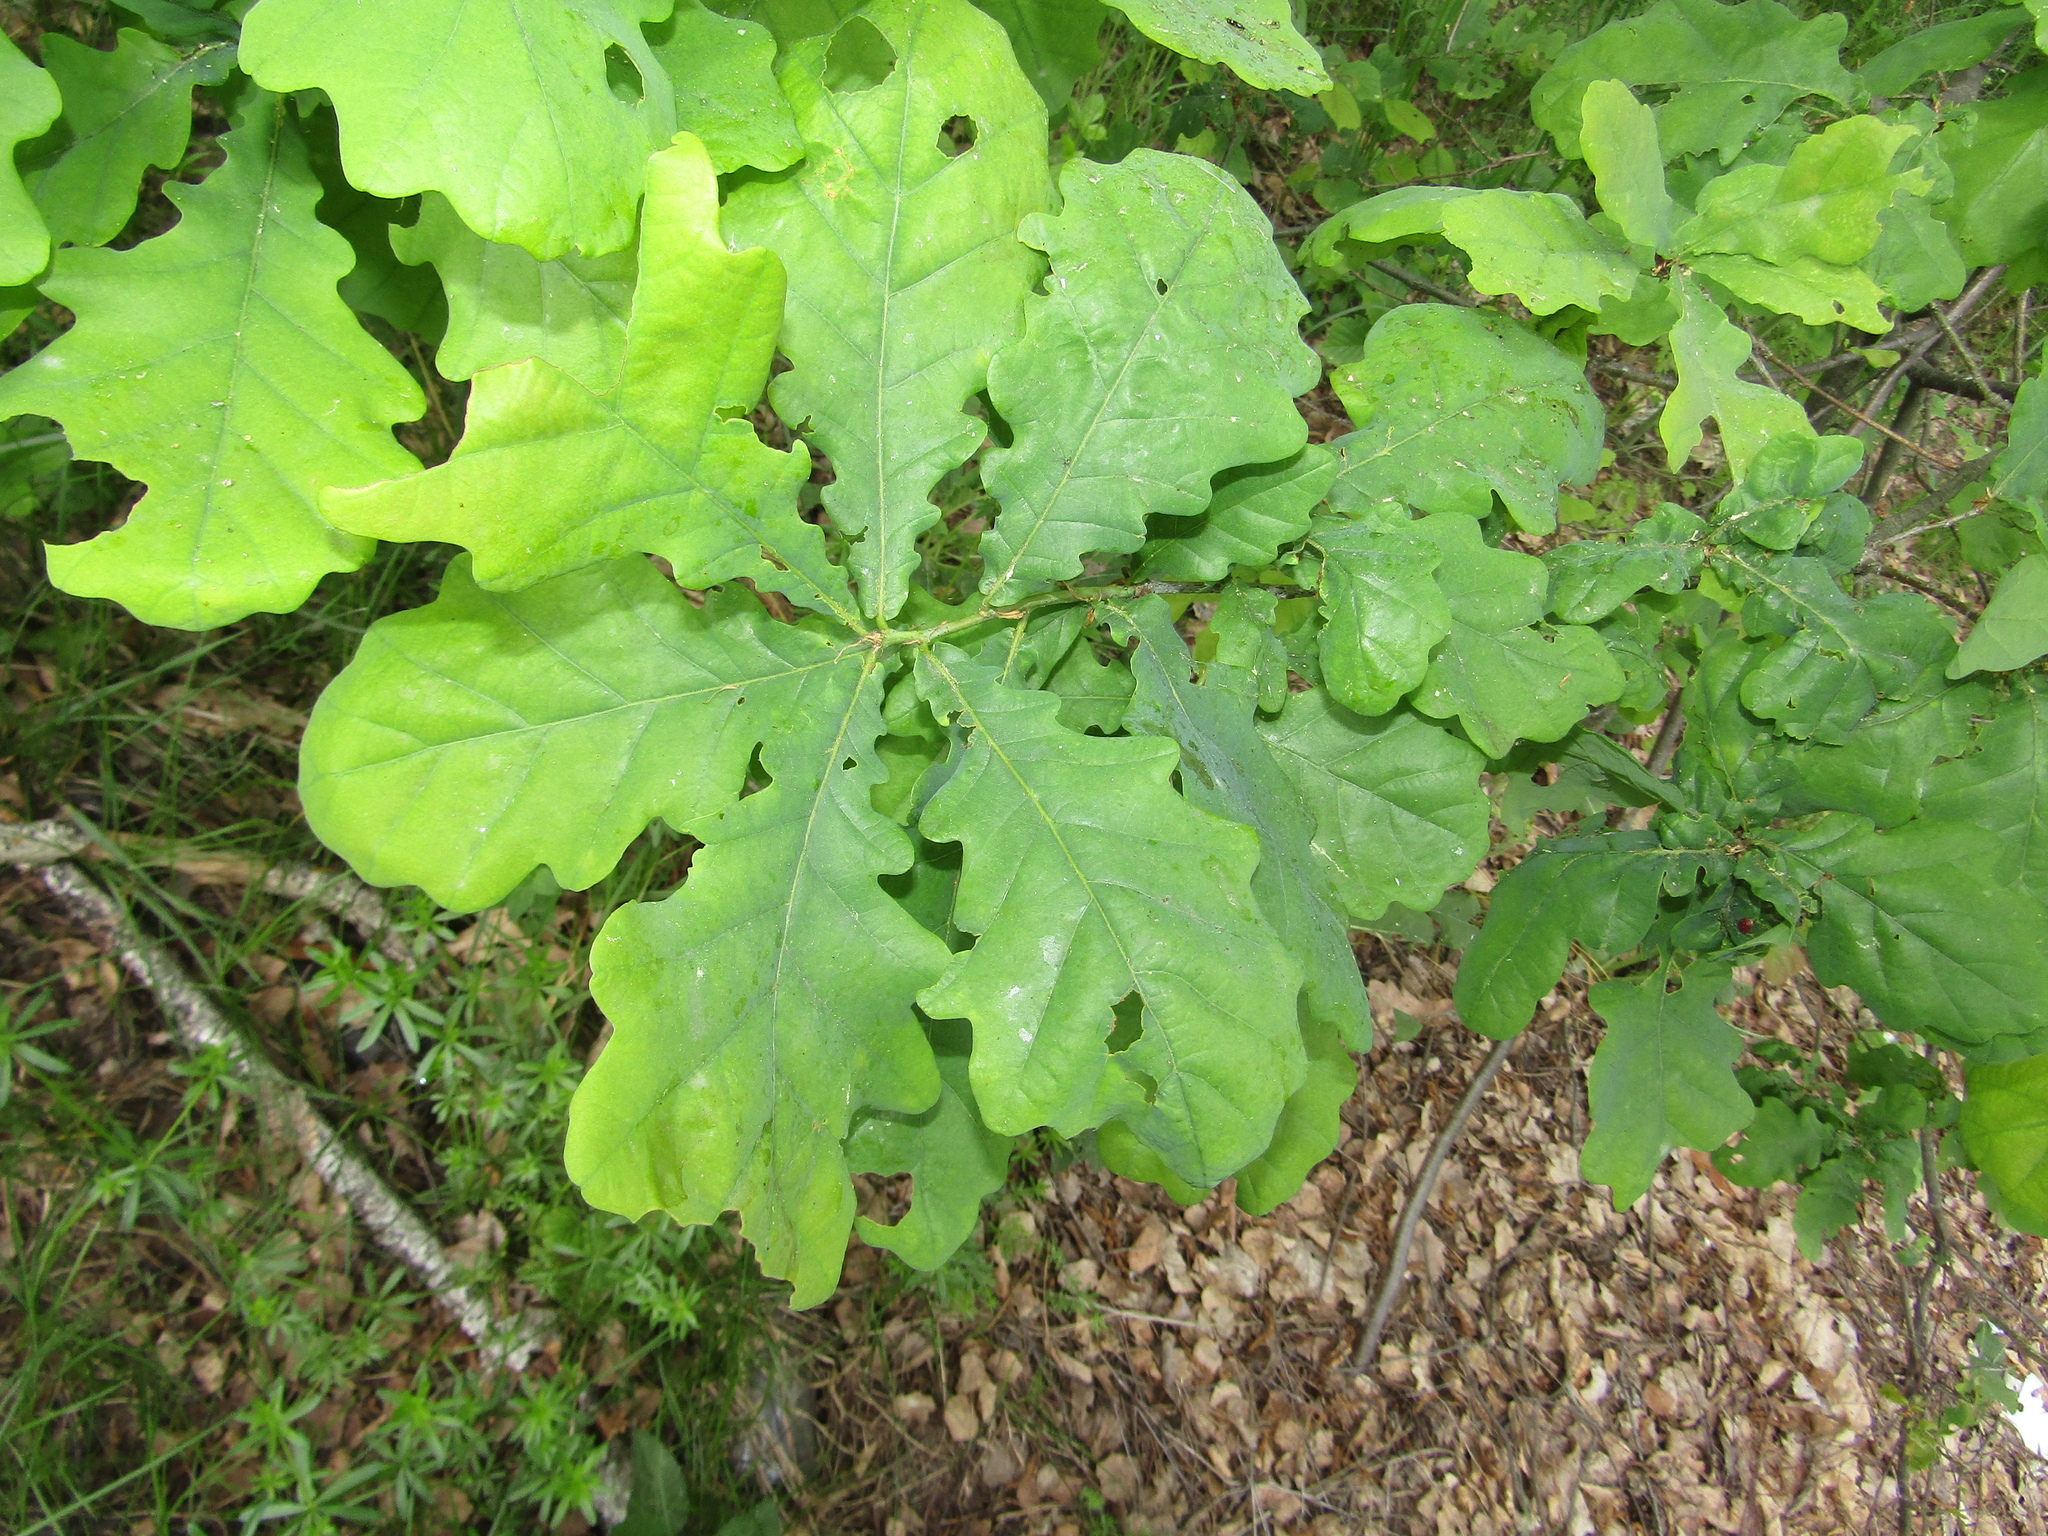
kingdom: Plantae
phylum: Tracheophyta
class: Magnoliopsida
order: Fagales
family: Fagaceae
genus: Quercus
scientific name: Quercus robur
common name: Pedunculate oak
